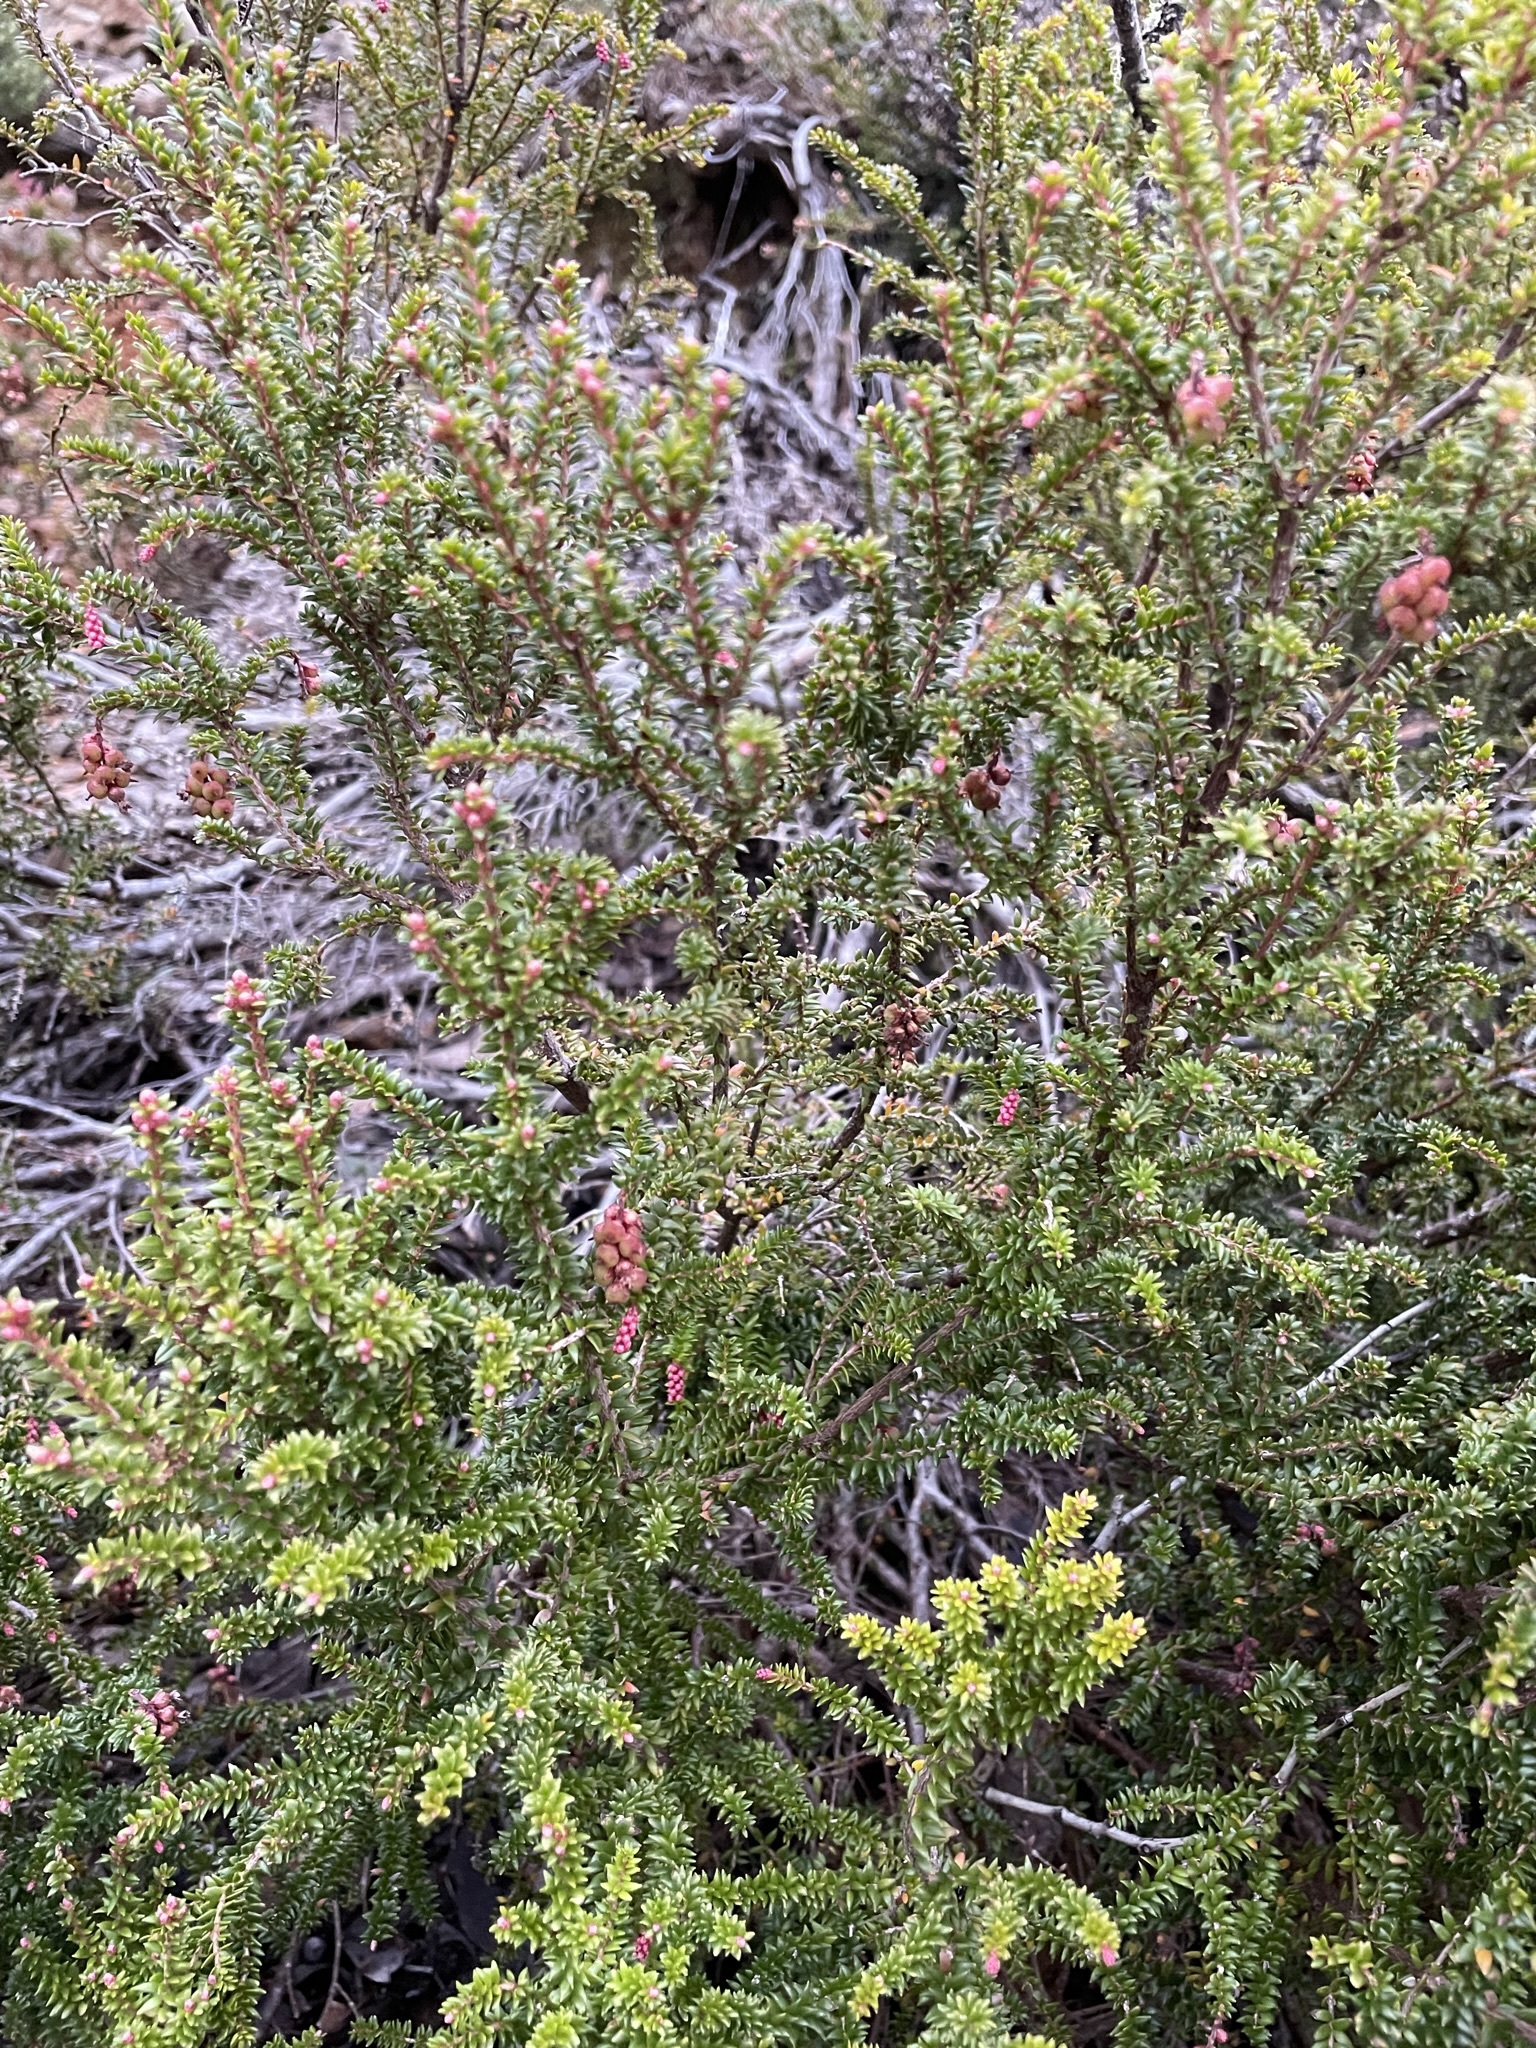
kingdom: Plantae
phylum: Tracheophyta
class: Magnoliopsida
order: Ericales
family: Ericaceae
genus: Trochocarpa
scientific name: Trochocarpa thymifolia
